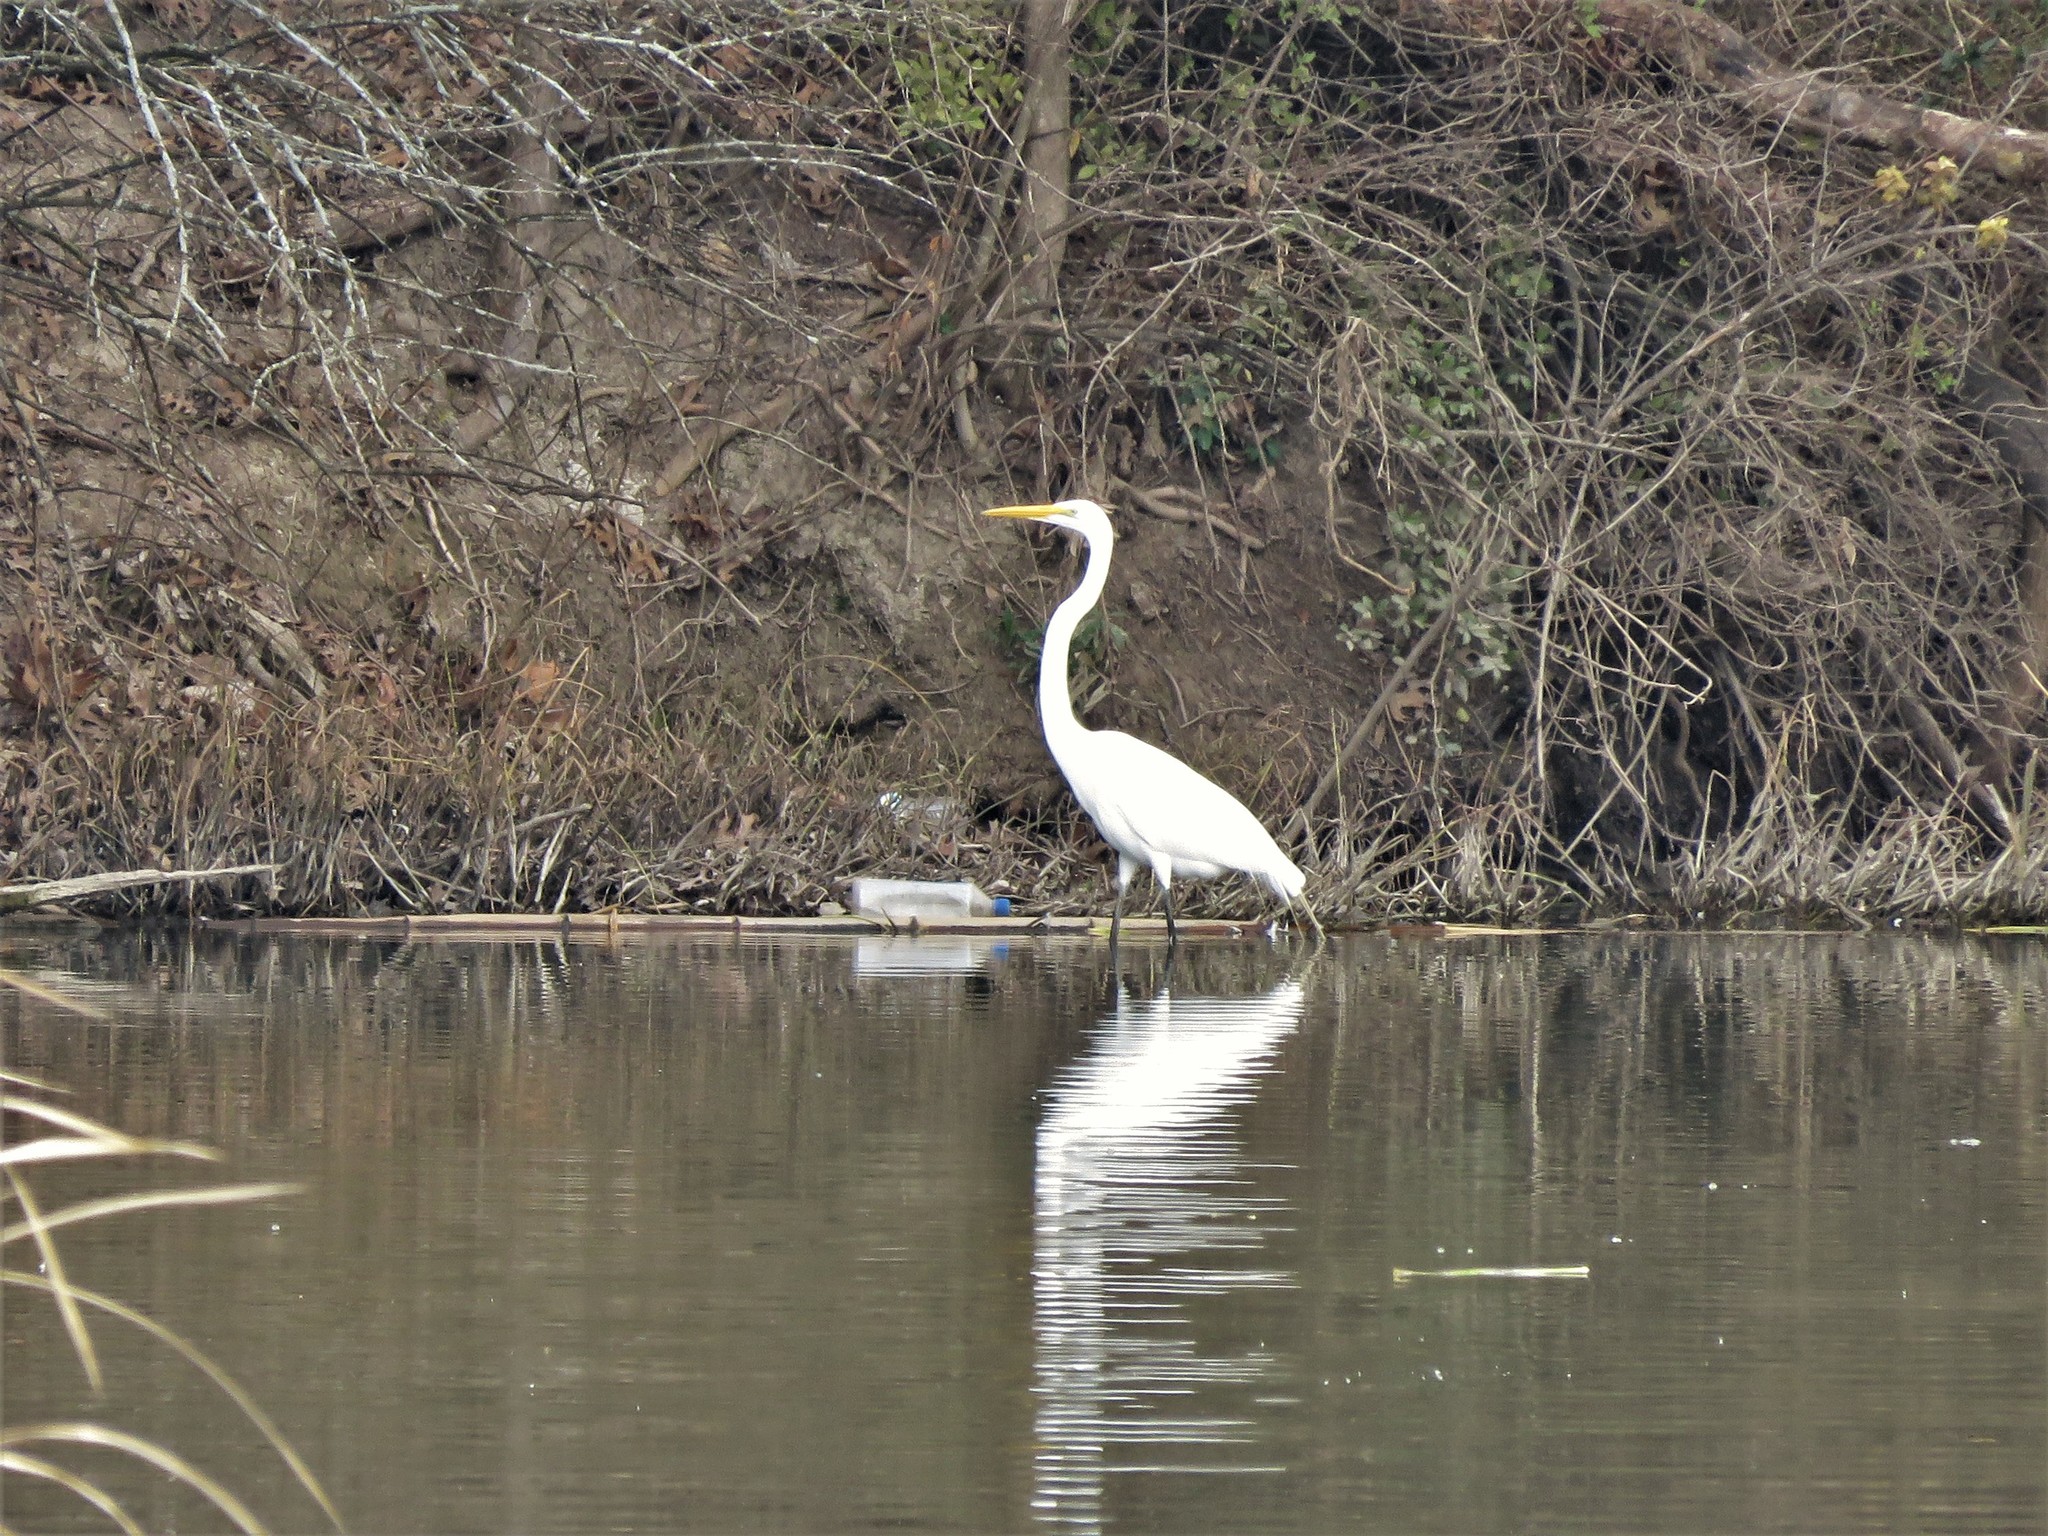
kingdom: Animalia
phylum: Chordata
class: Aves
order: Pelecaniformes
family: Ardeidae
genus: Ardea
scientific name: Ardea alba
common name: Great egret
